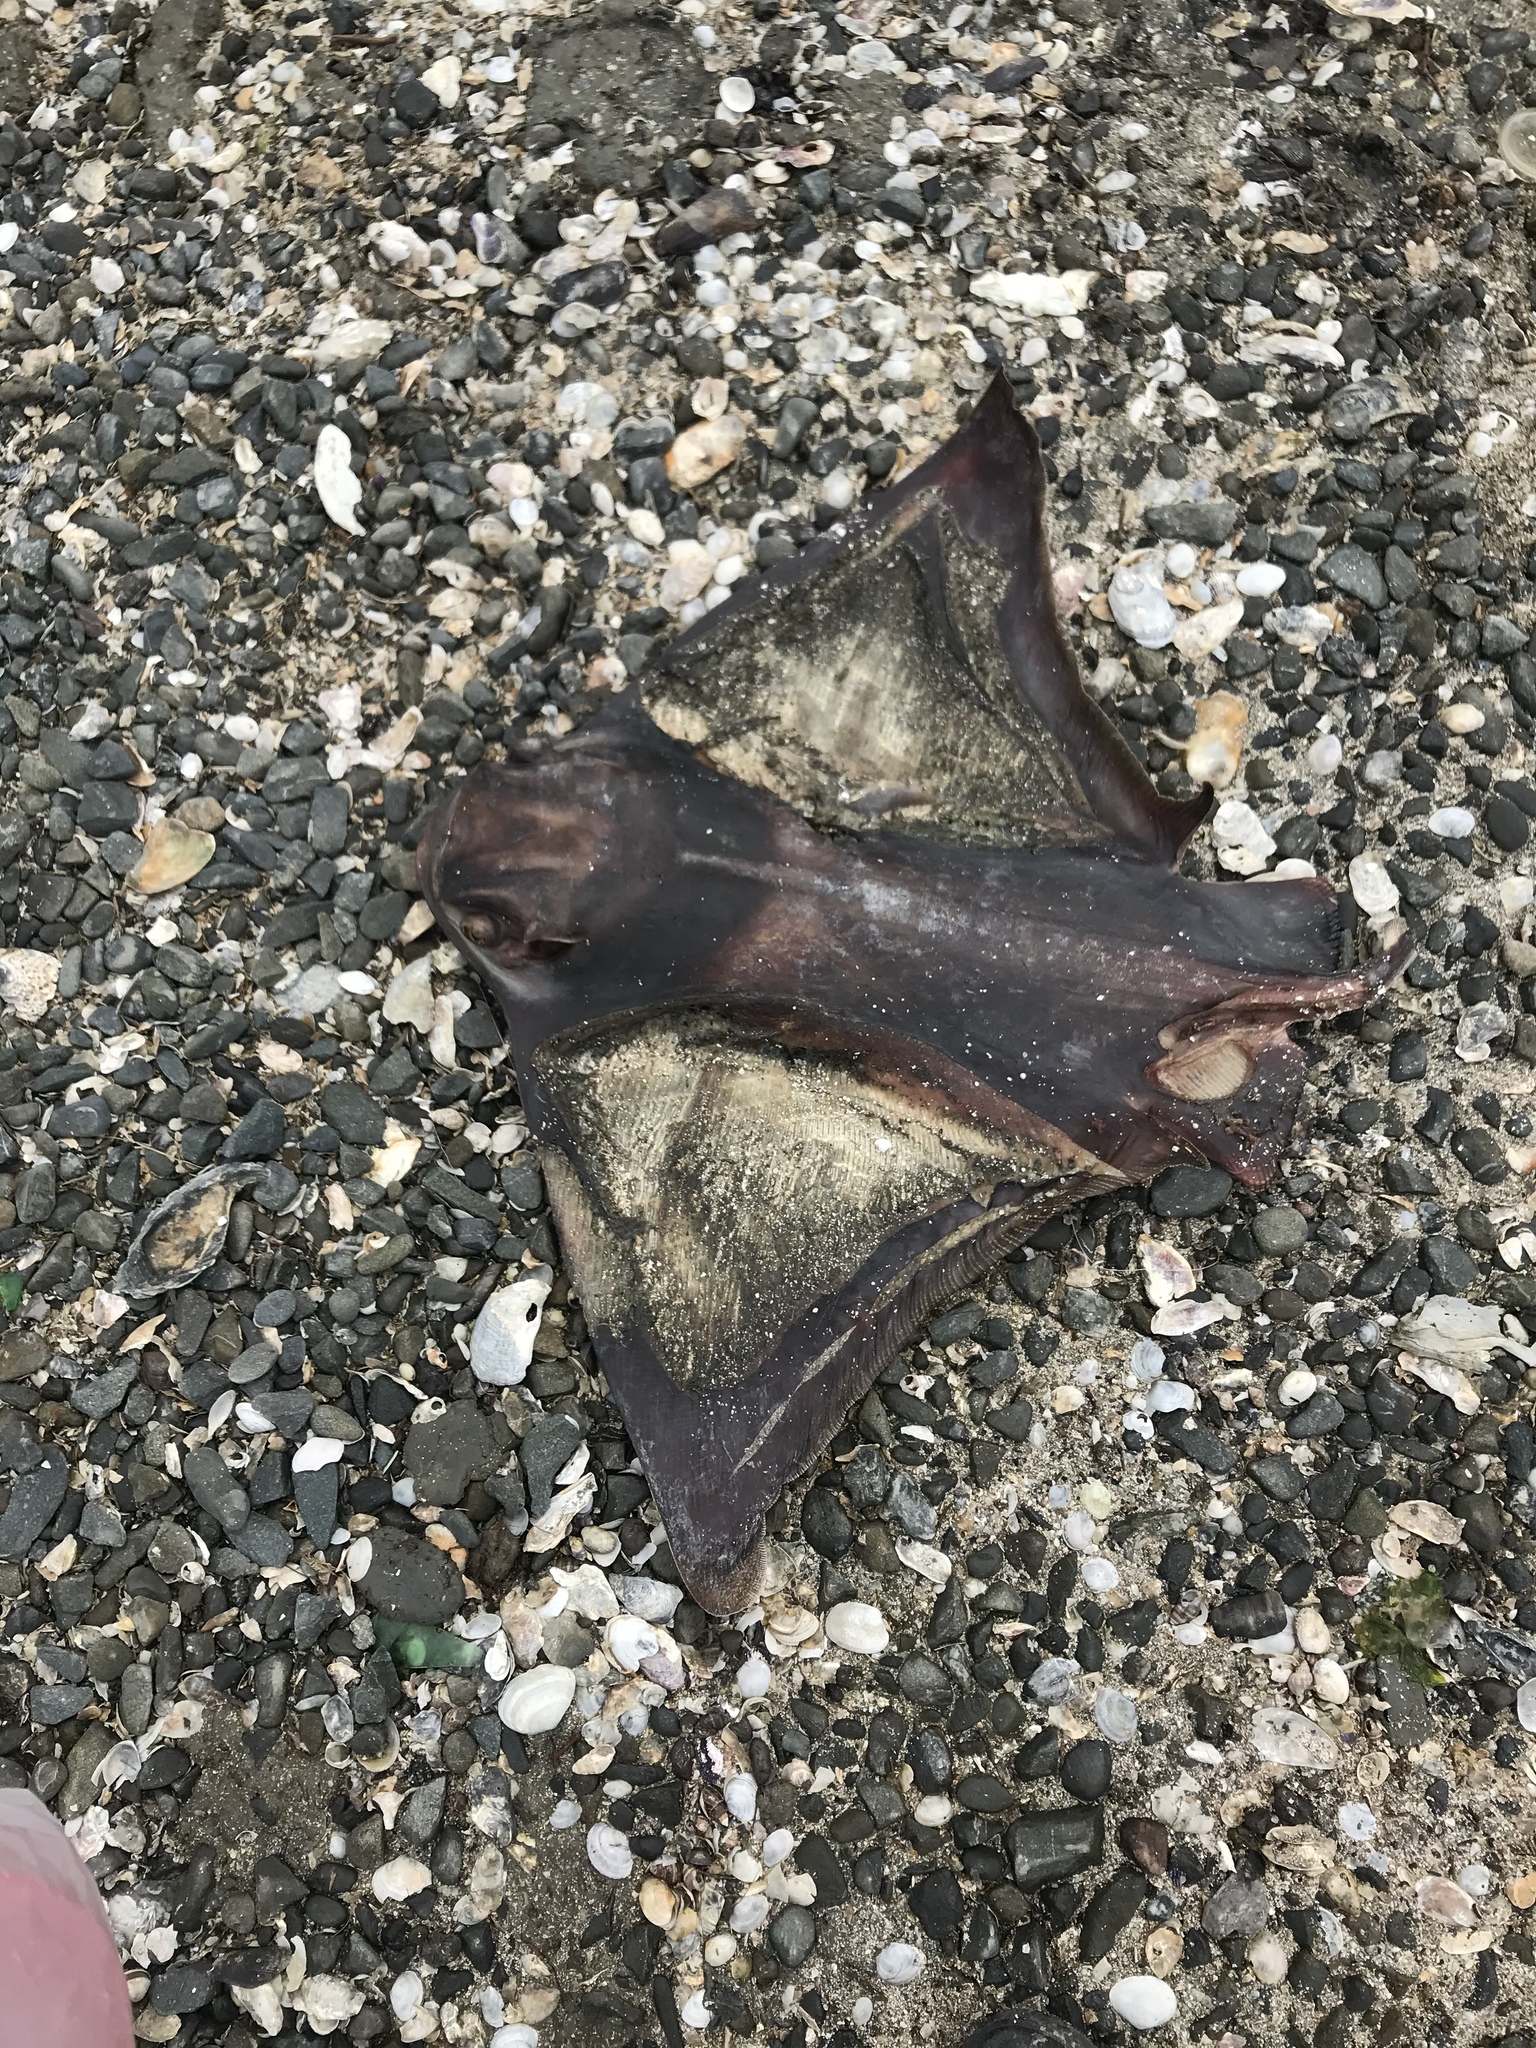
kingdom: Animalia
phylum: Chordata
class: Elasmobranchii
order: Myliobatiformes
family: Myliobatidae
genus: Myliobatis
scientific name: Myliobatis californica
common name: Bat ray
